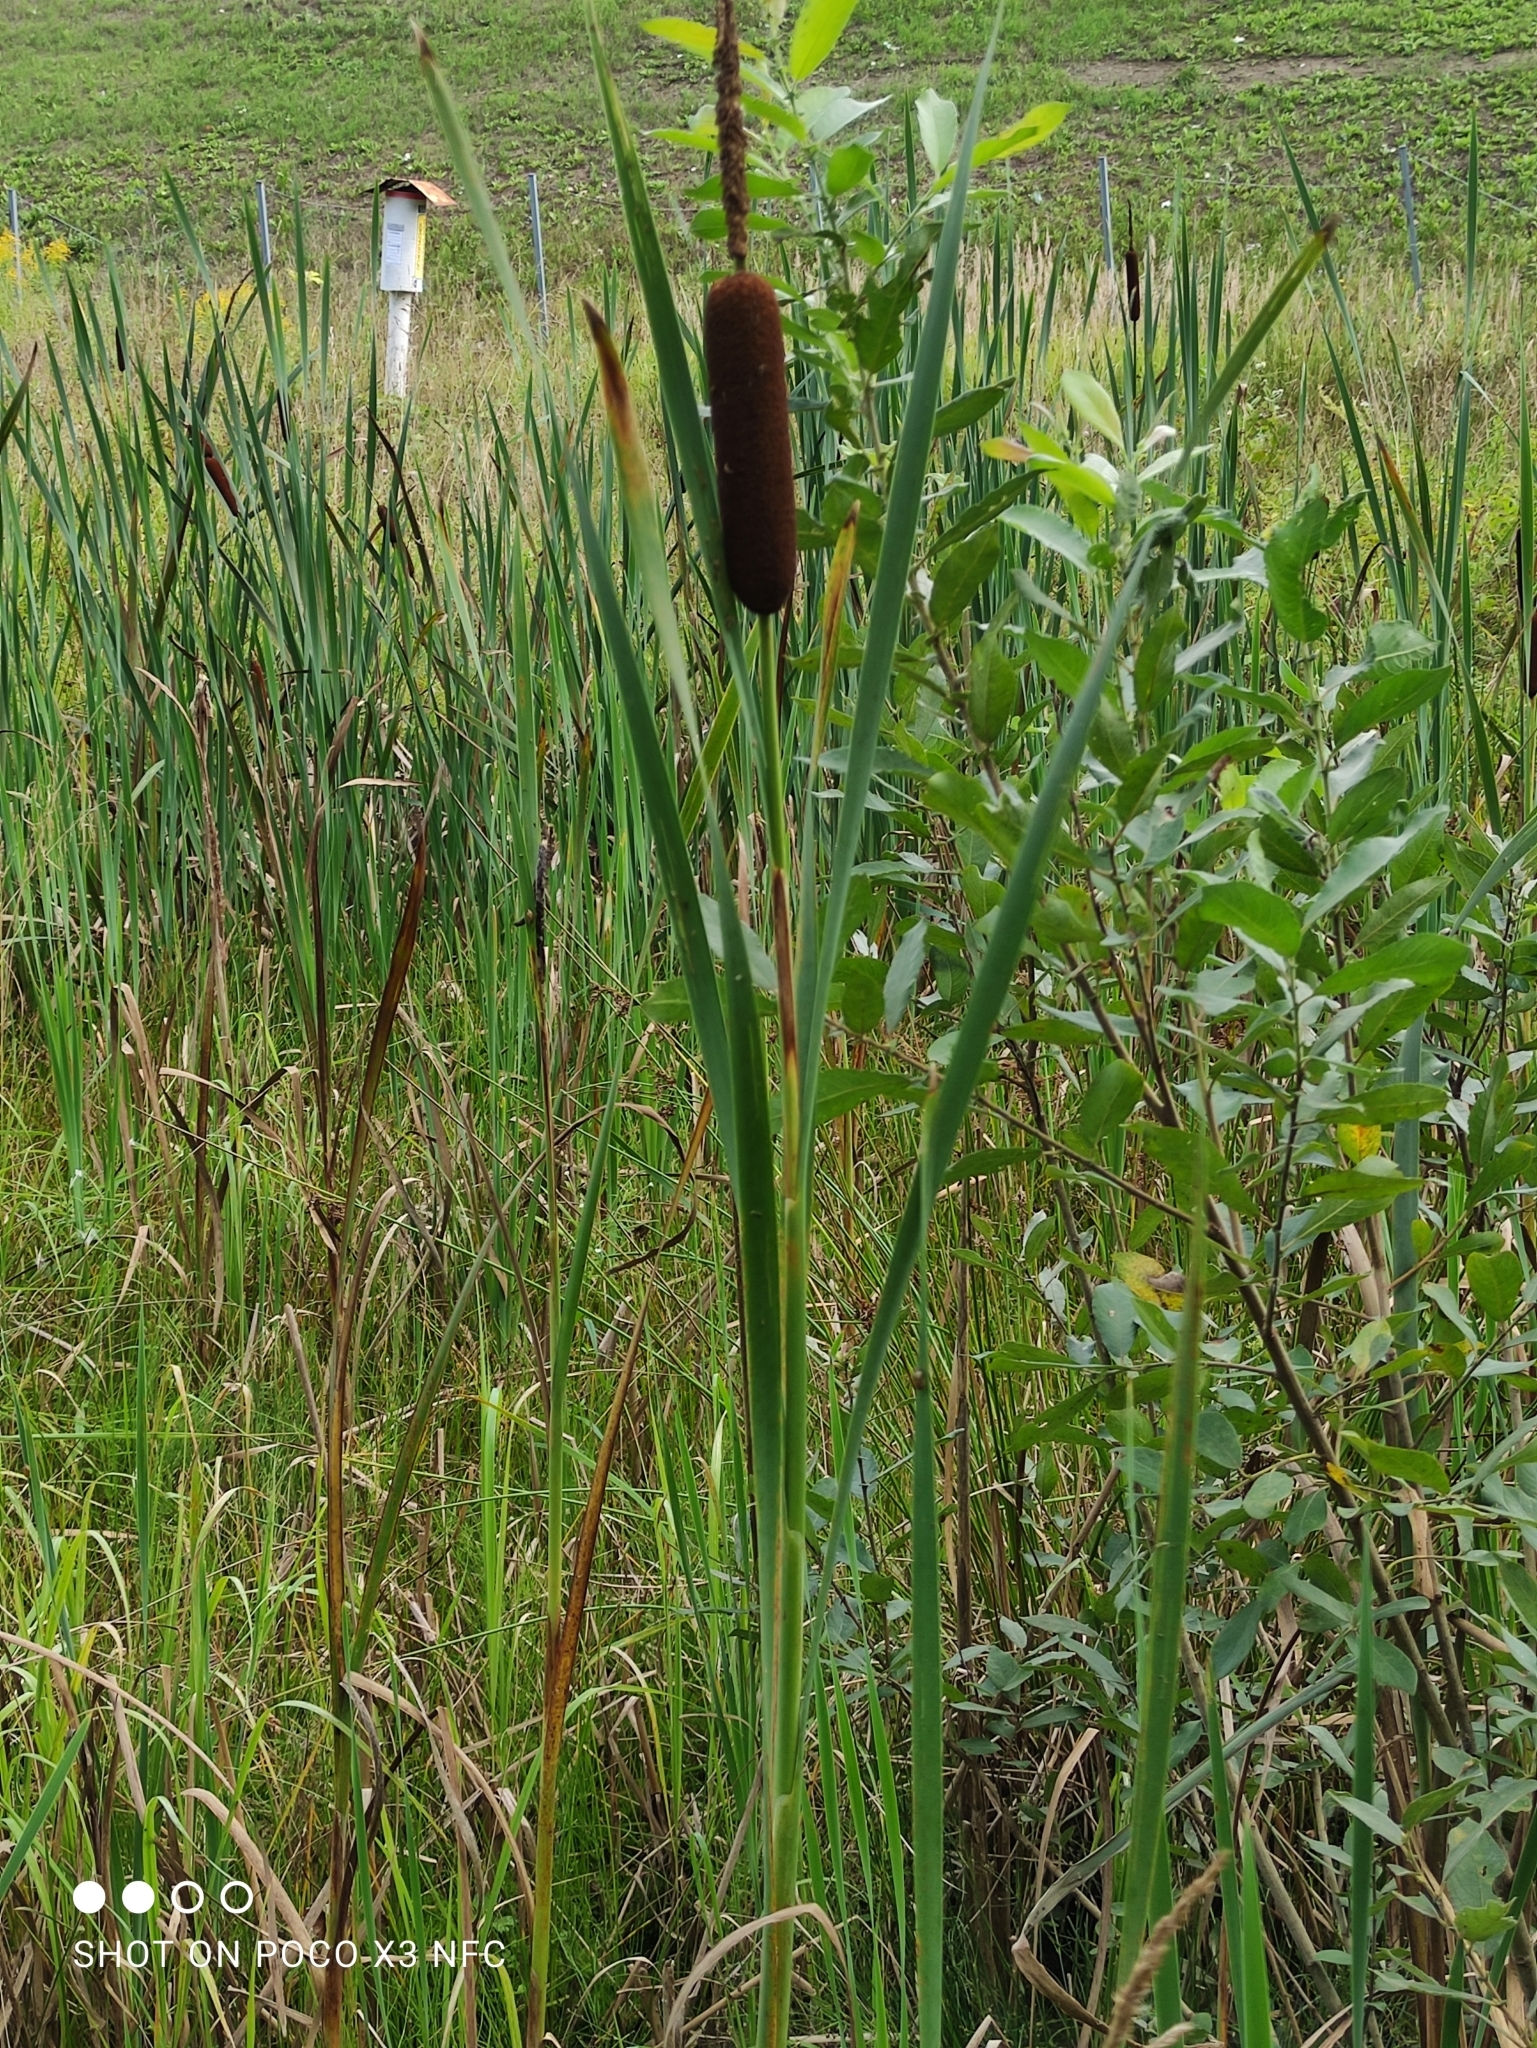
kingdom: Plantae
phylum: Tracheophyta
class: Liliopsida
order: Poales
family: Typhaceae
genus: Typha
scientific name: Typha latifolia
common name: Broadleaf cattail
